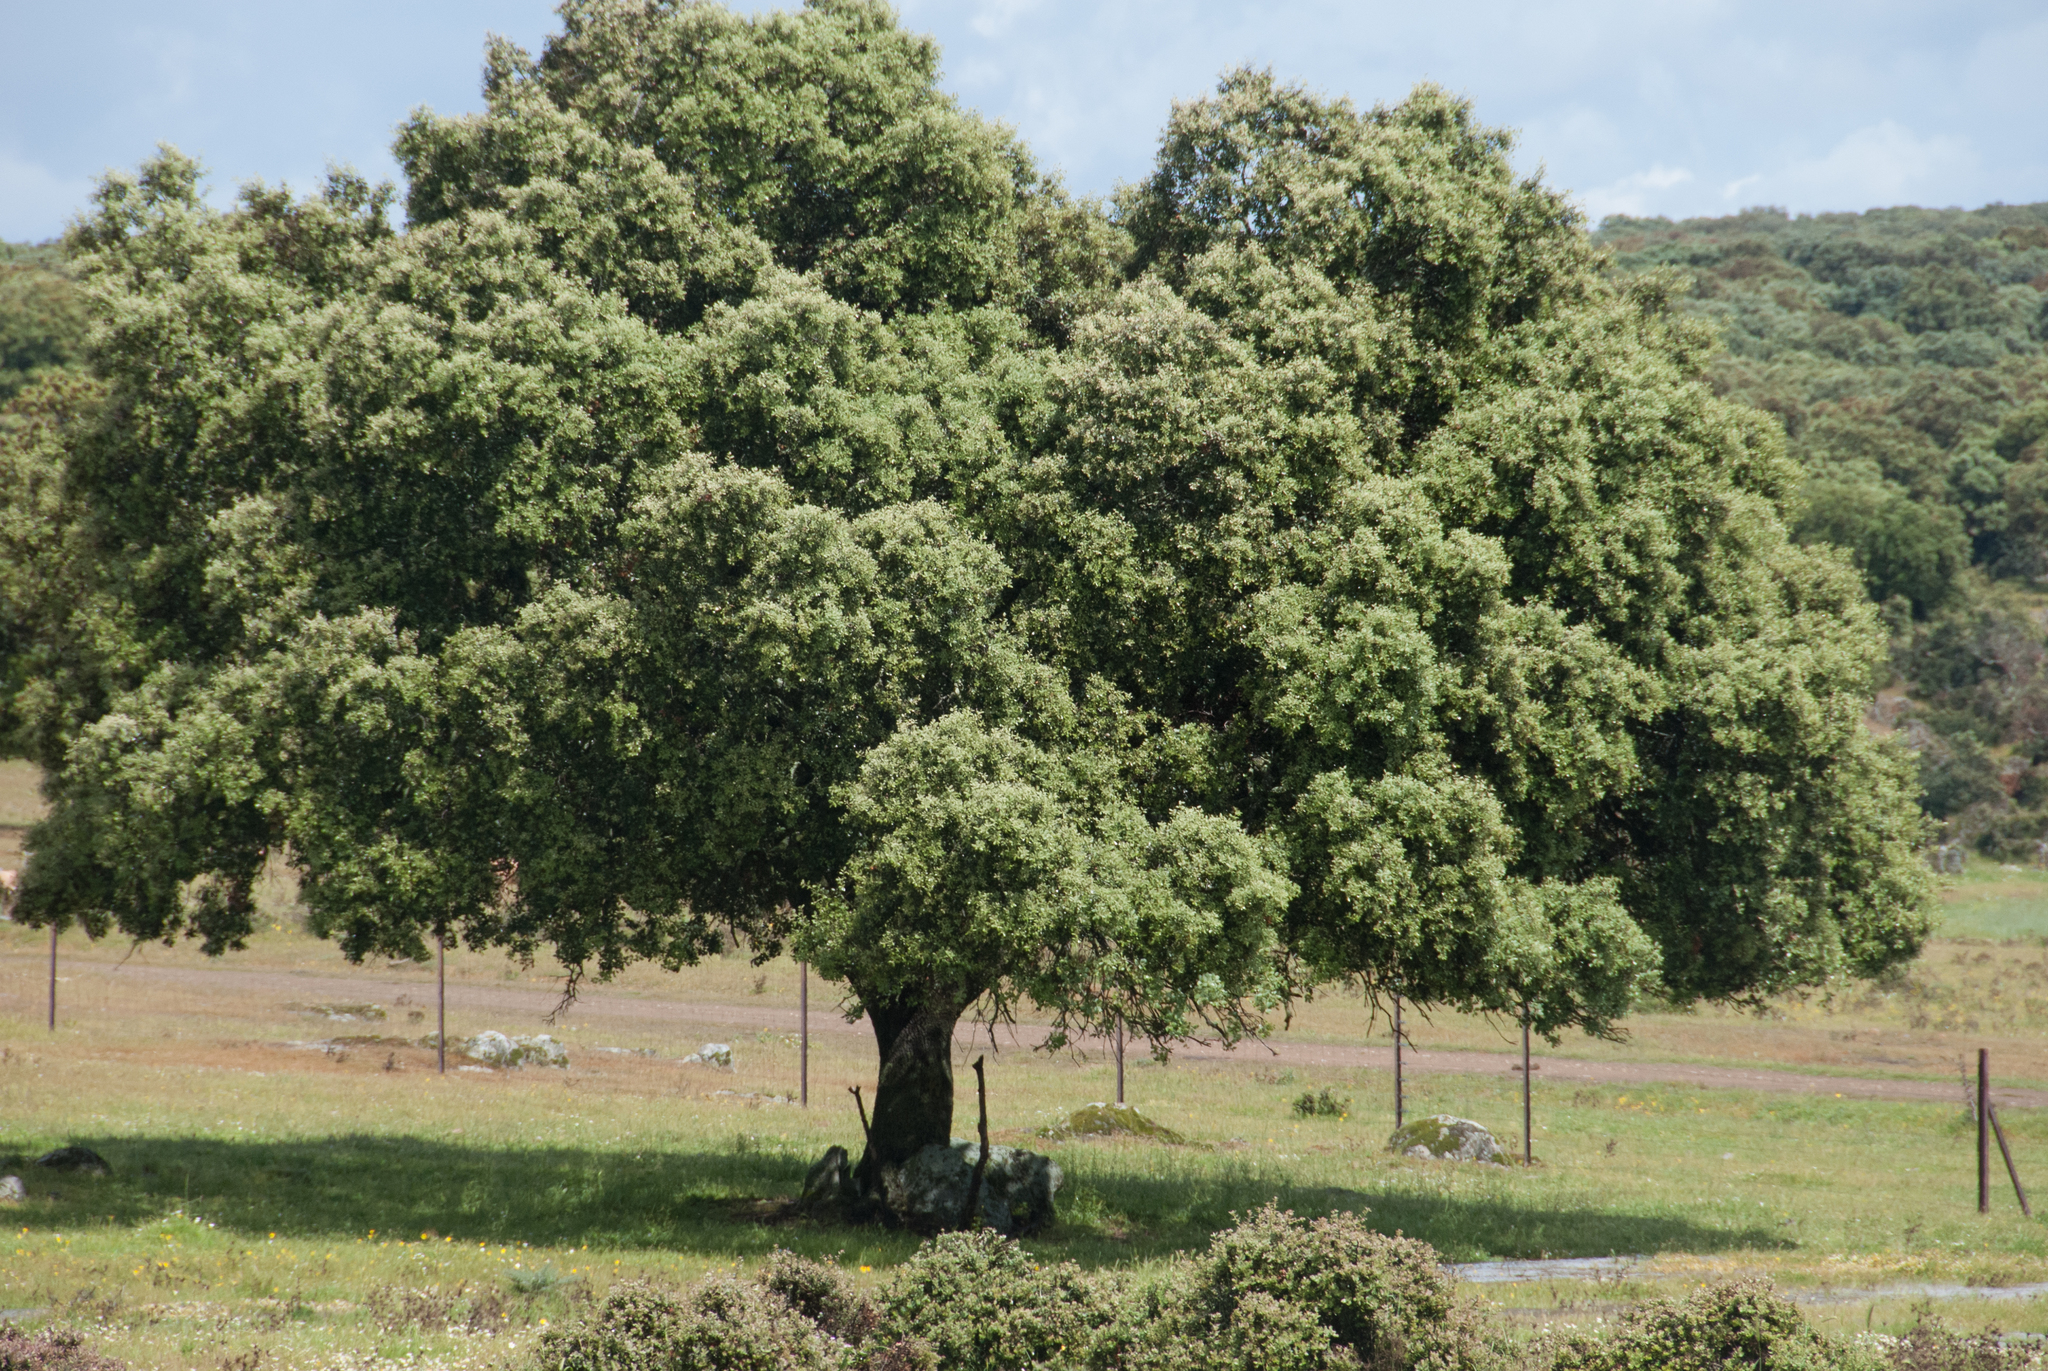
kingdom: Plantae
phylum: Tracheophyta
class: Magnoliopsida
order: Fagales
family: Fagaceae
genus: Quercus
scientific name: Quercus rotundifolia
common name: Holm oak
